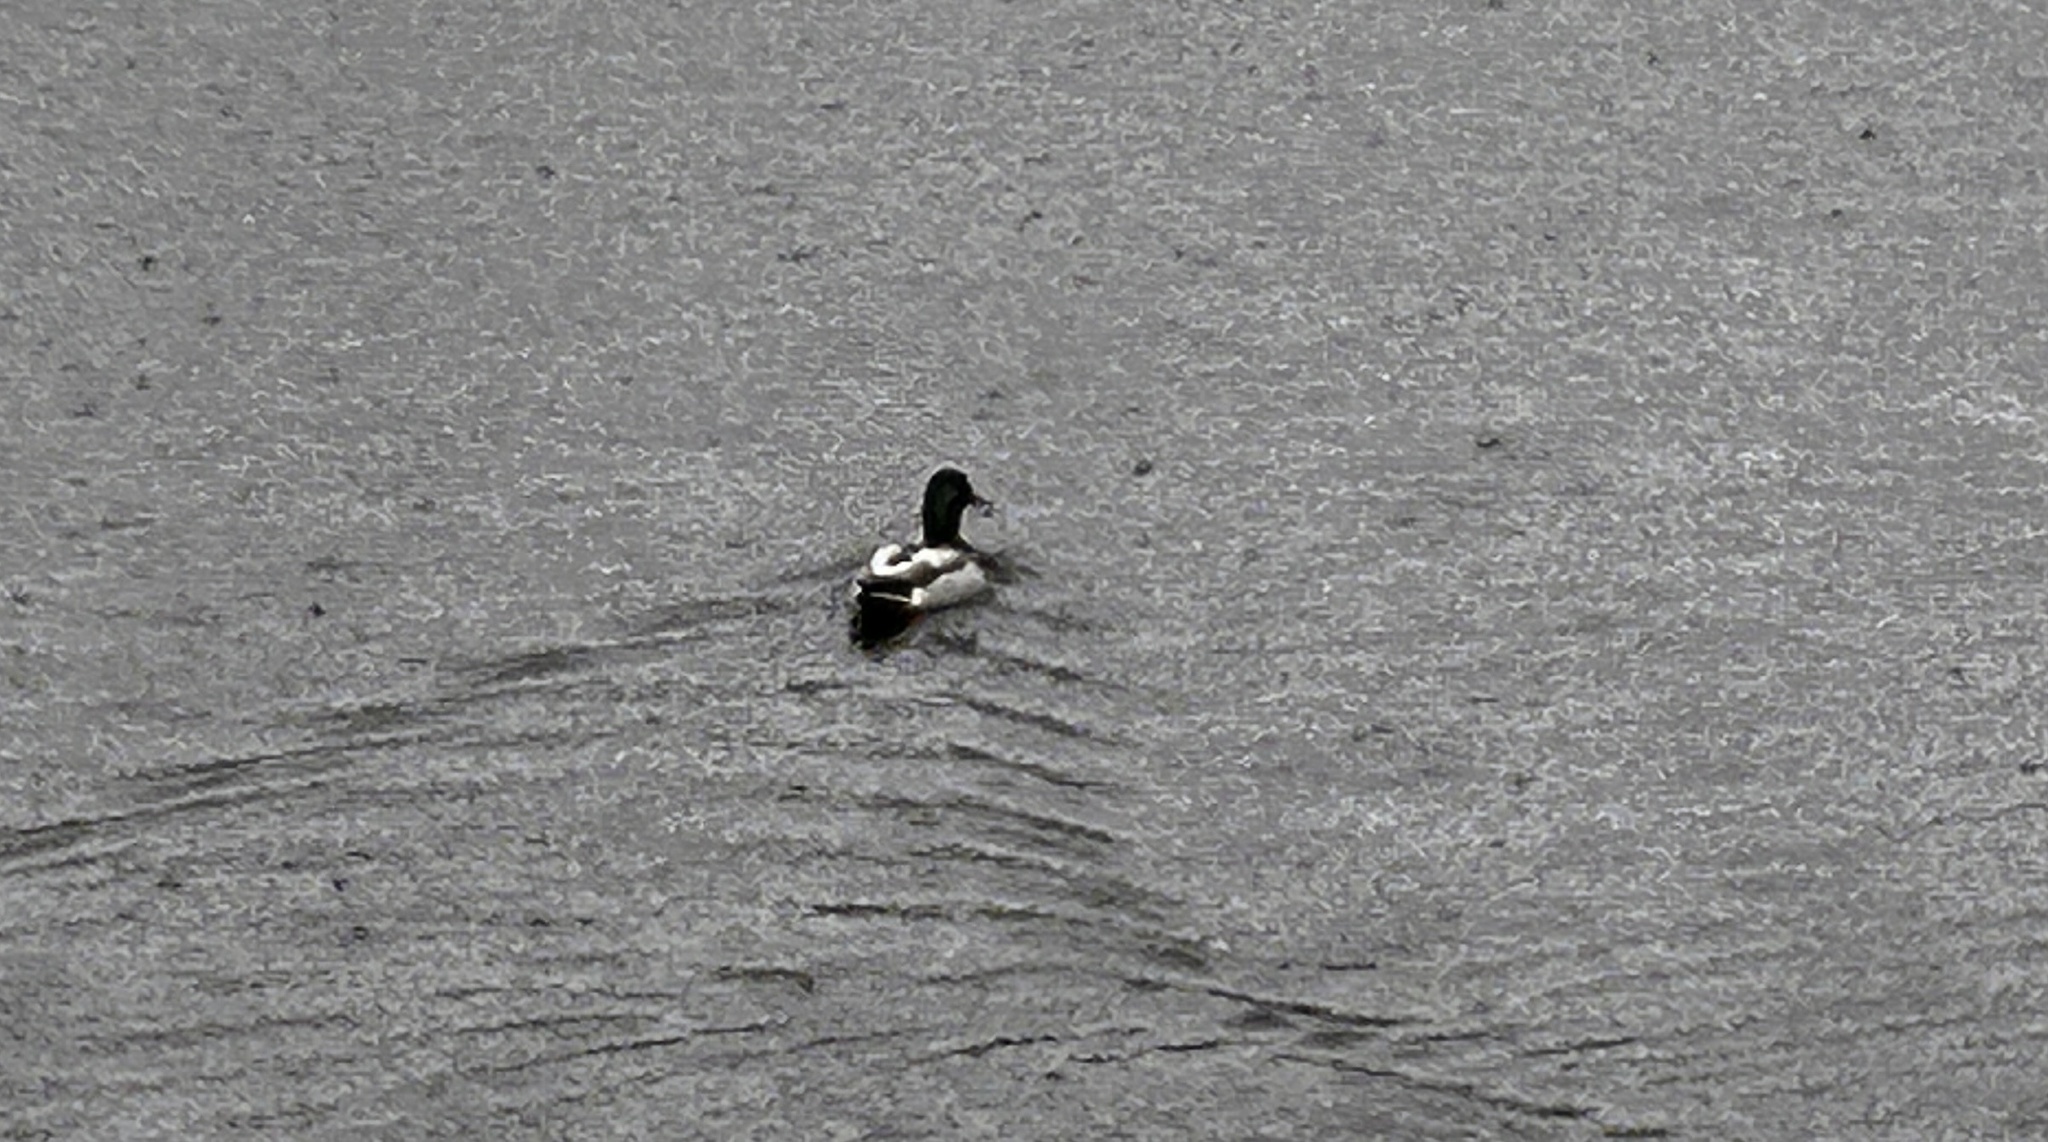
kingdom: Animalia
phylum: Chordata
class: Aves
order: Anseriformes
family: Anatidae
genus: Anas
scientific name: Anas platyrhynchos
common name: Mallard
